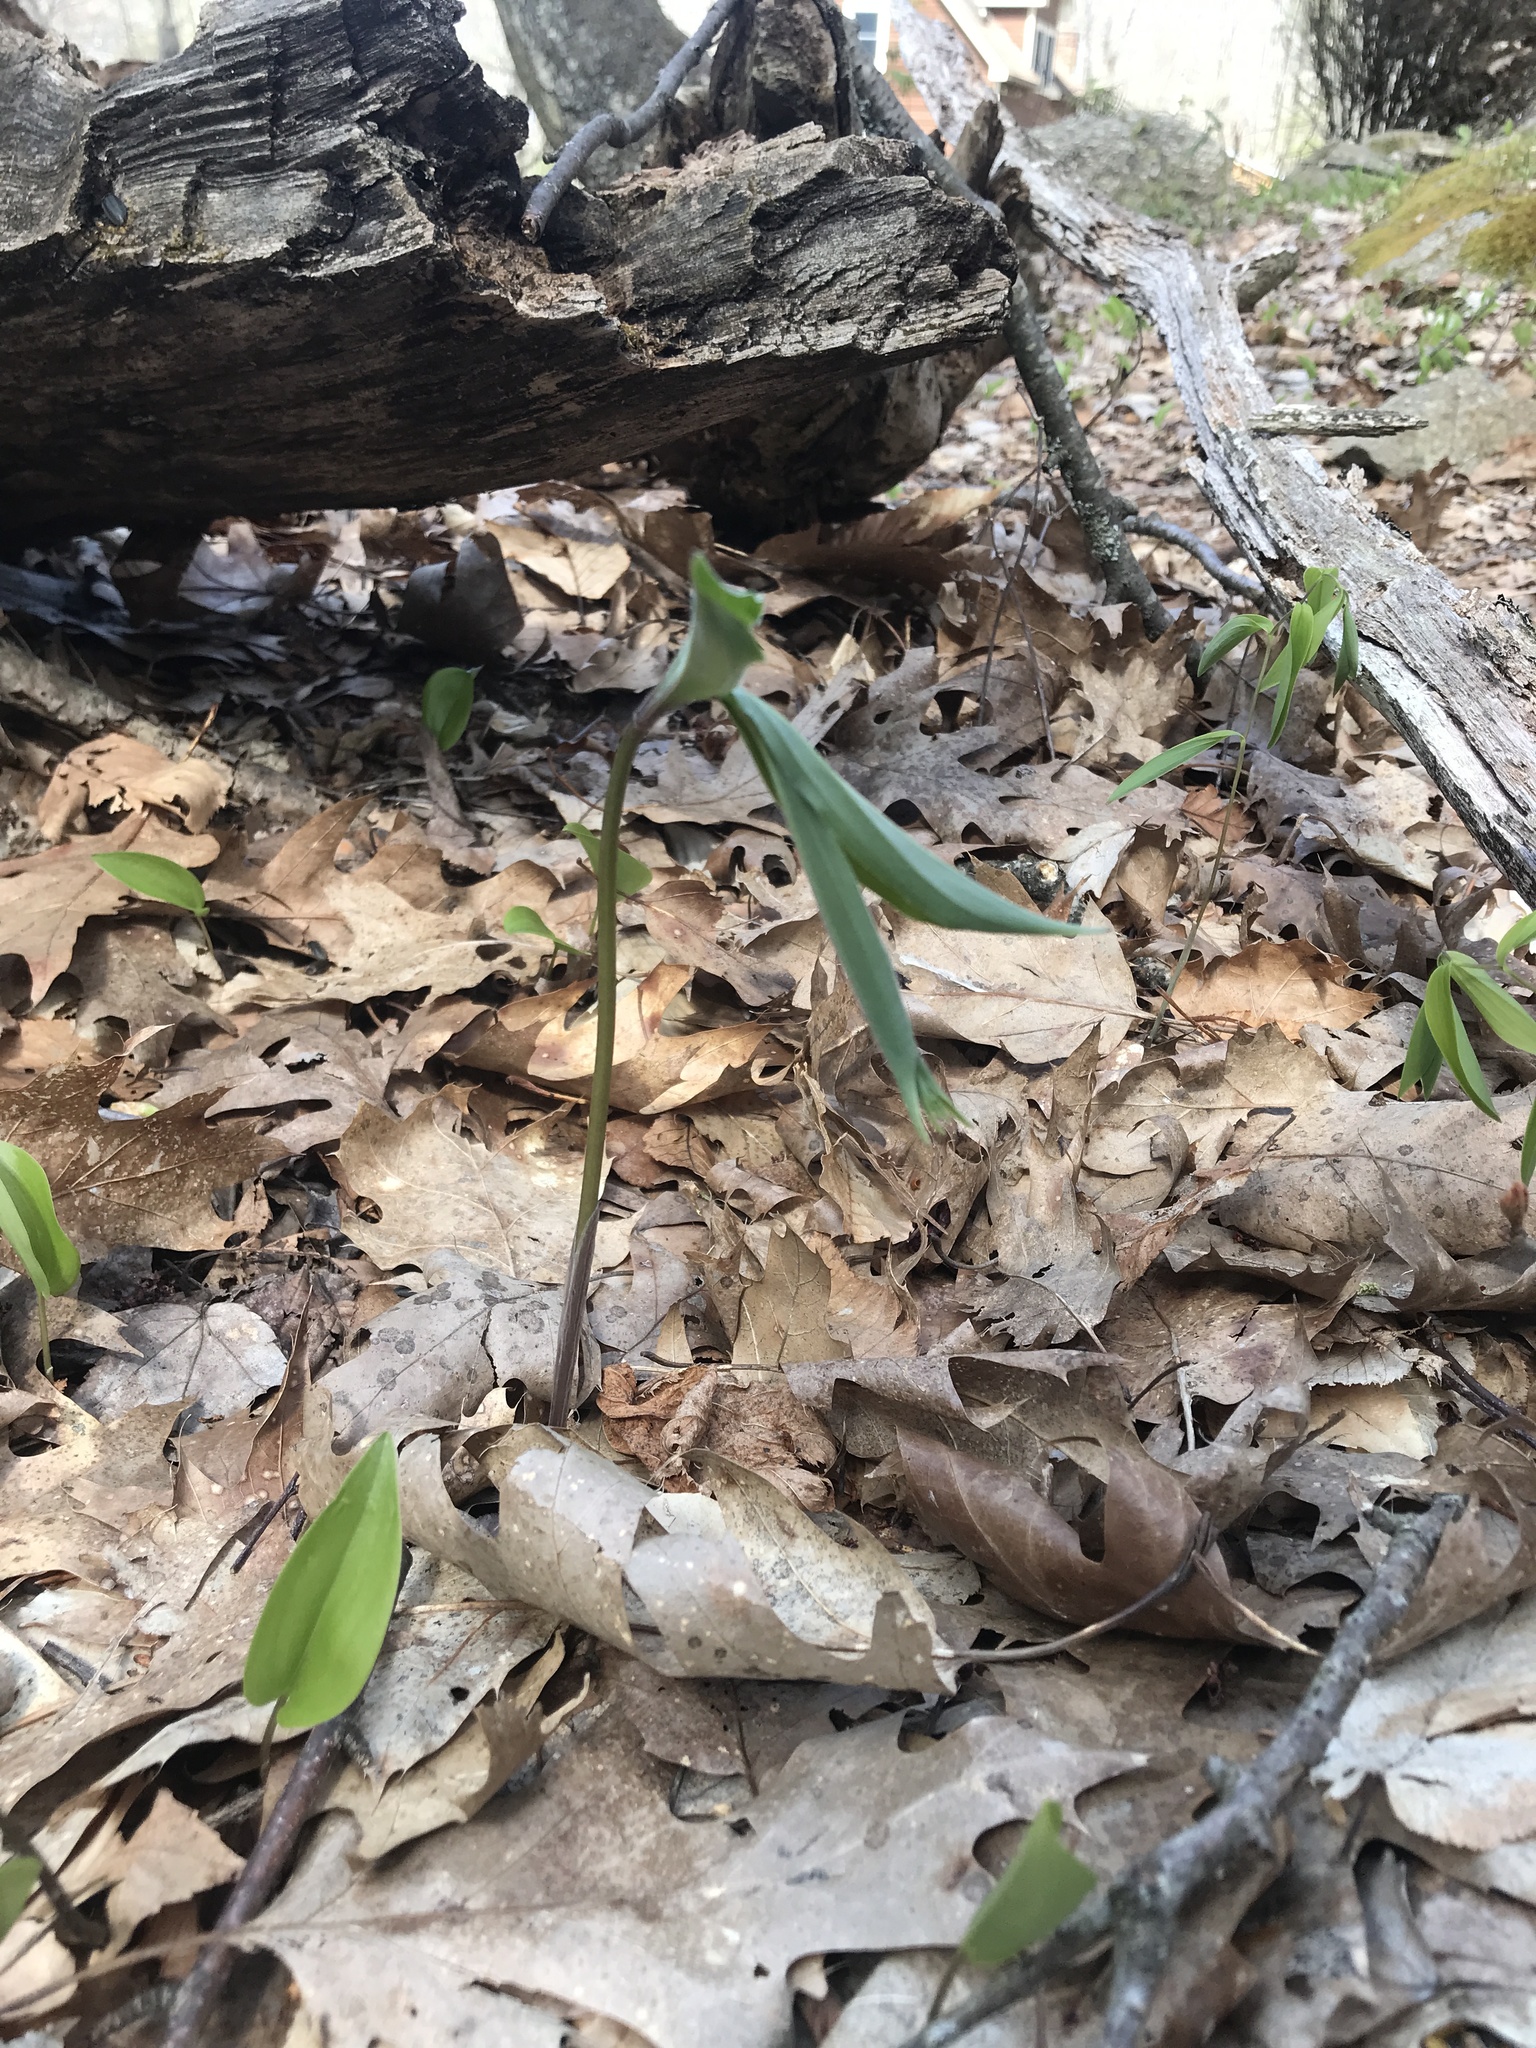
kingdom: Plantae
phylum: Tracheophyta
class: Liliopsida
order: Asparagales
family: Asparagaceae
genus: Maianthemum
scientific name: Maianthemum racemosum
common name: False spikenard
